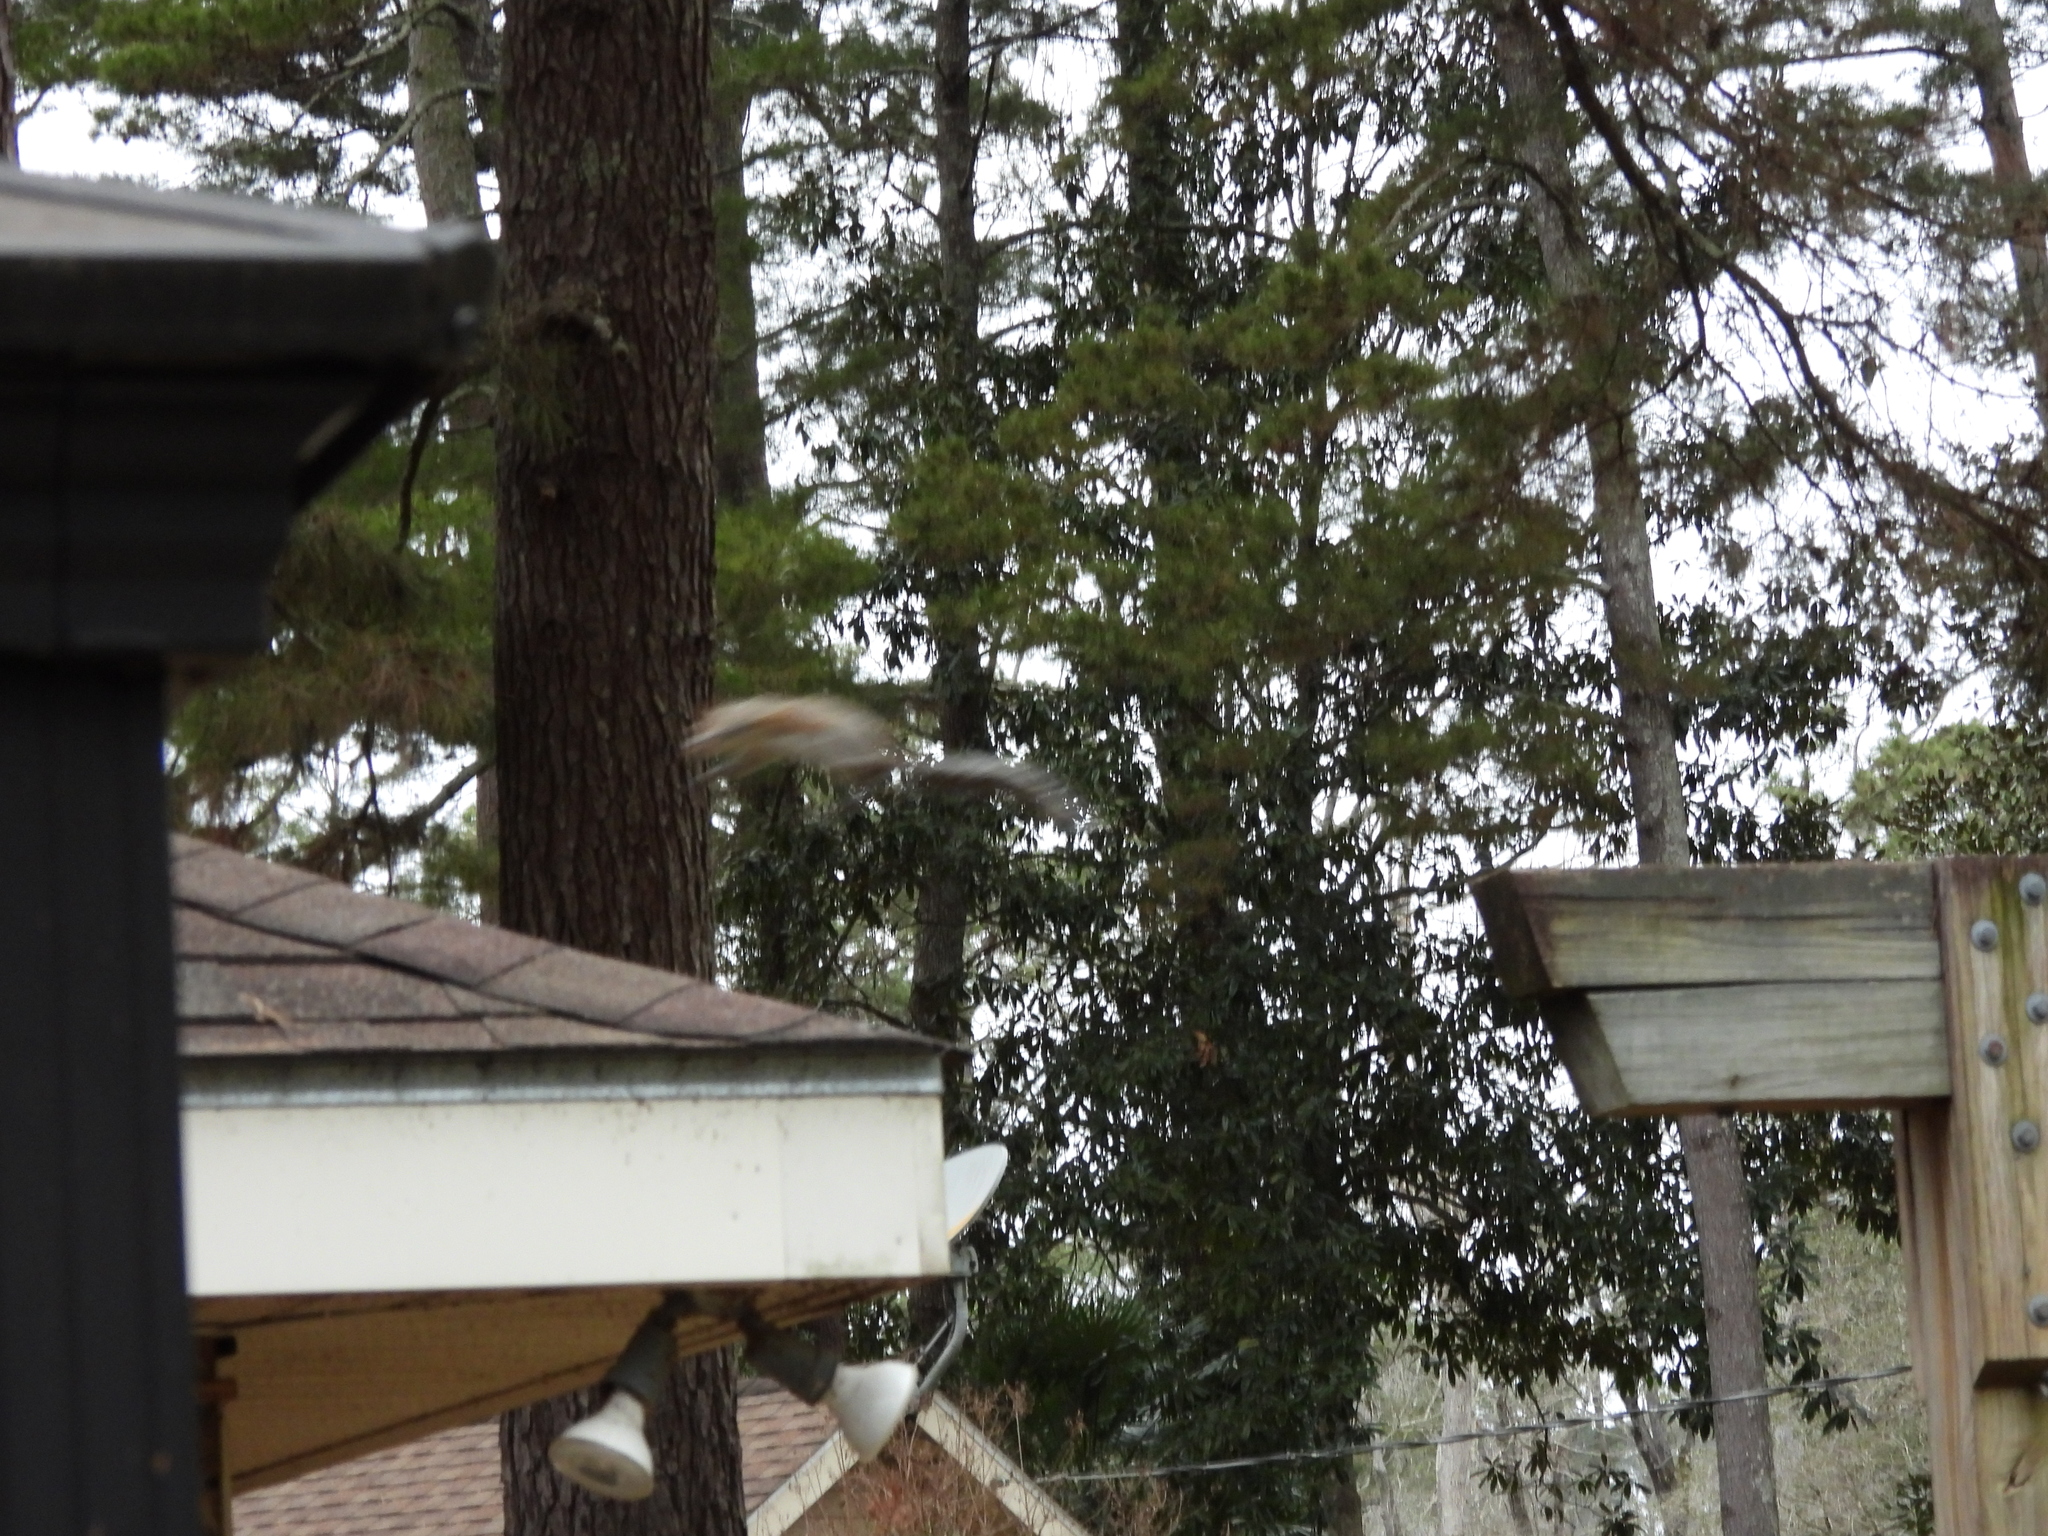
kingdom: Animalia
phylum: Chordata
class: Mammalia
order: Rodentia
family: Sciuridae
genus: Sciurus
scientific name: Sciurus carolinensis
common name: Eastern gray squirrel
